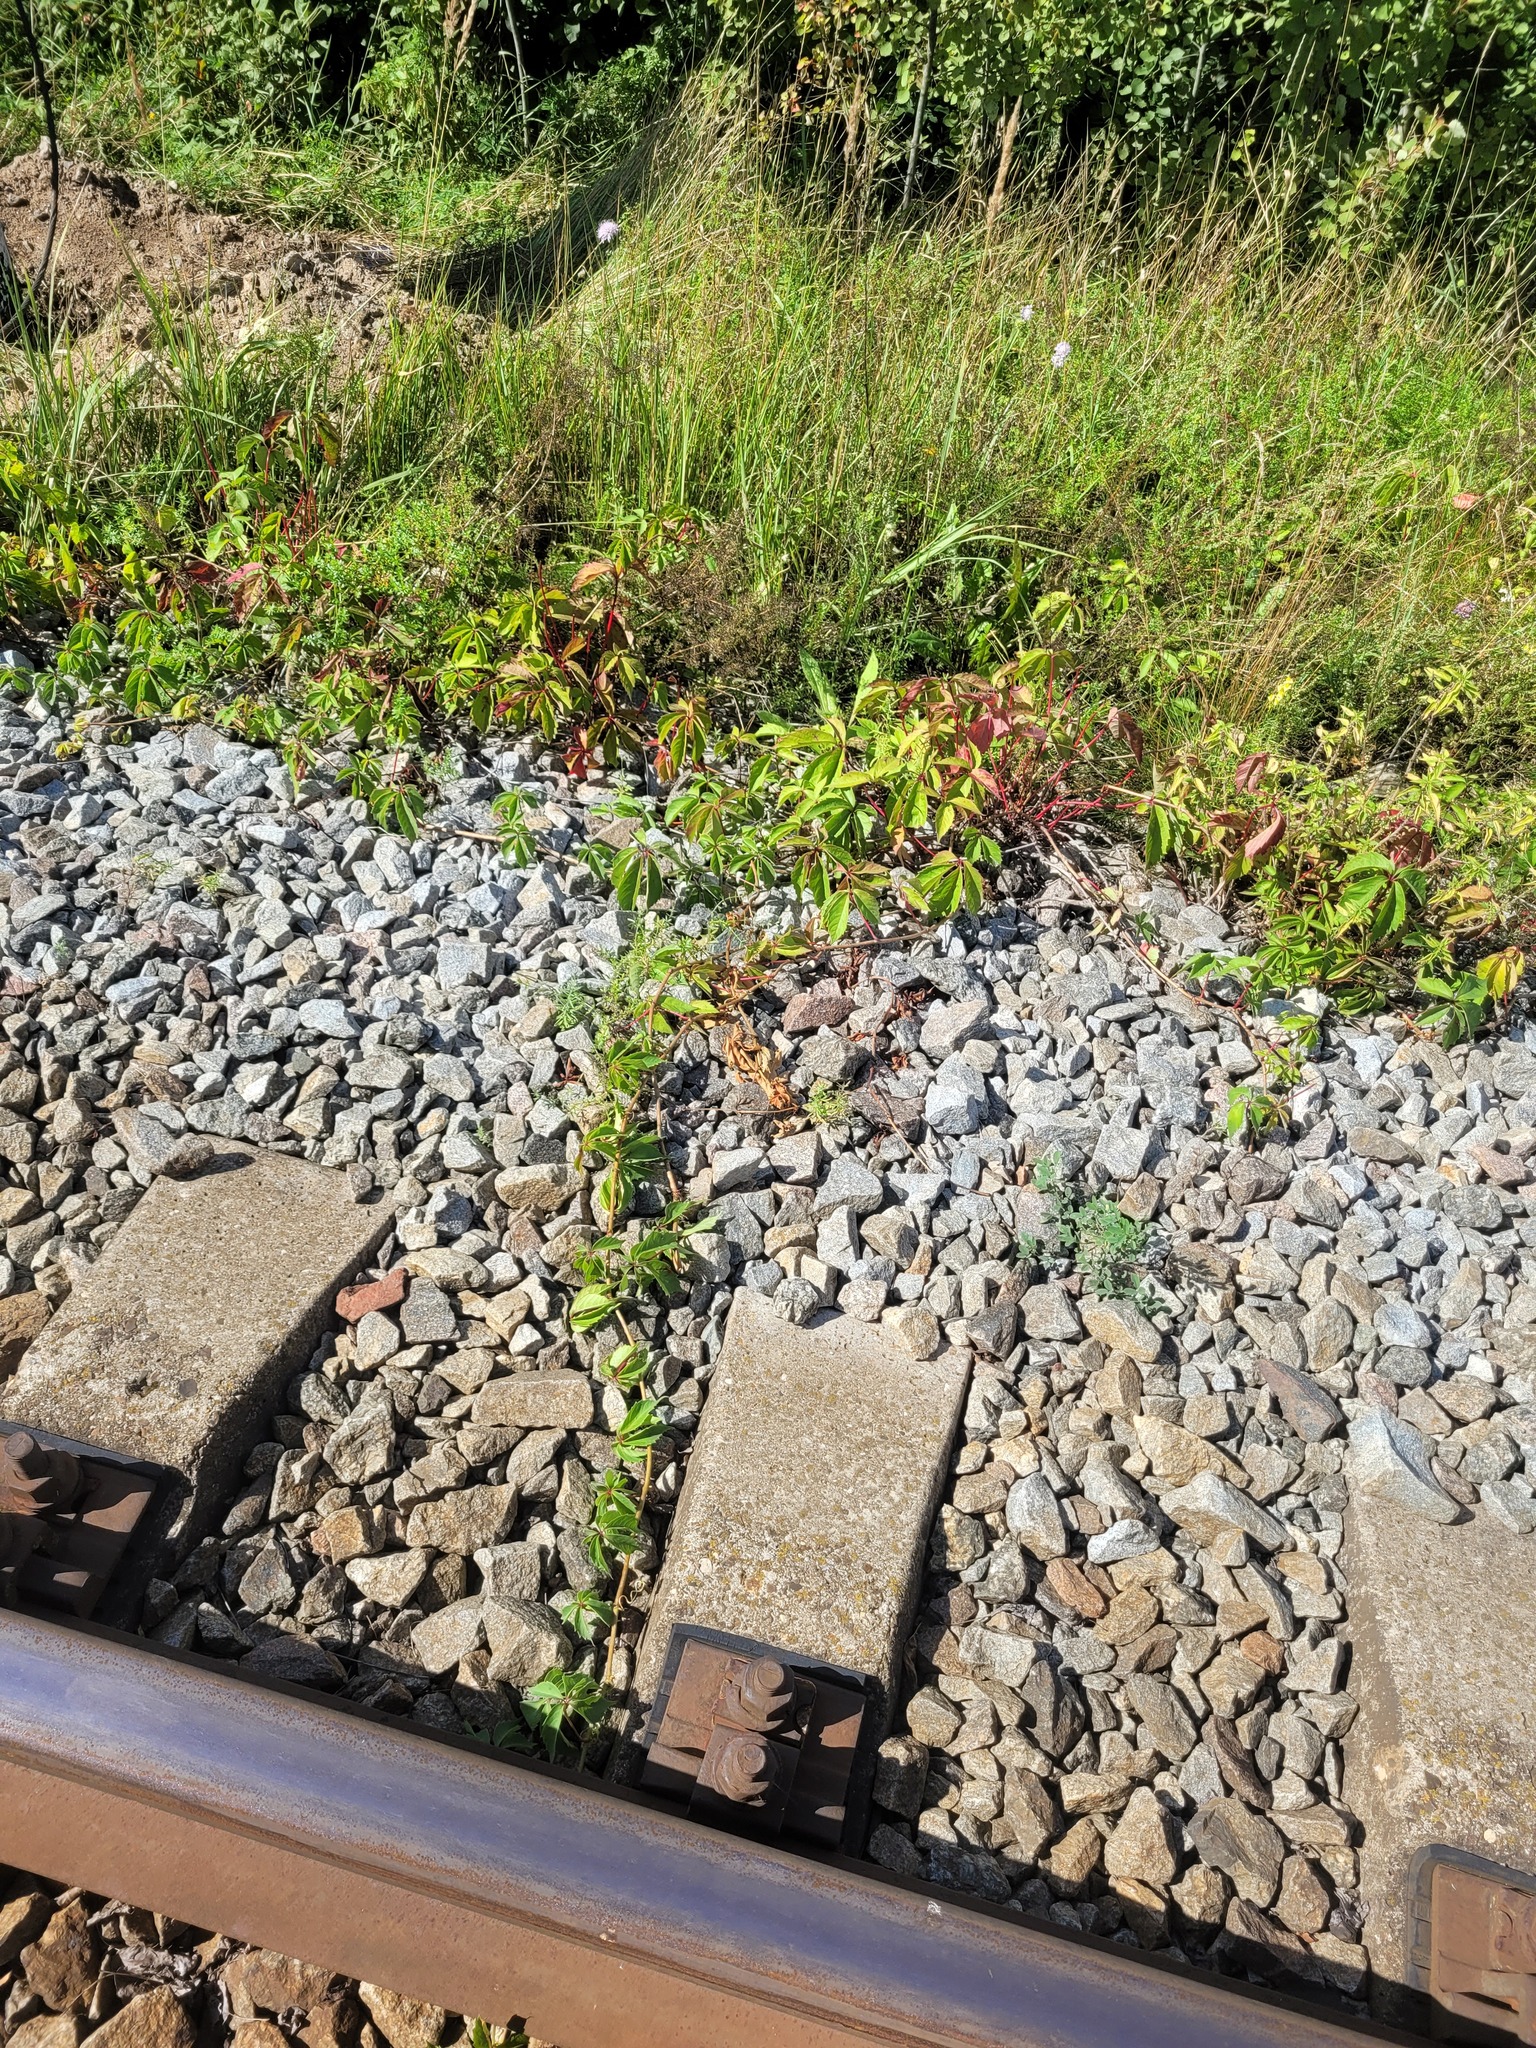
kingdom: Plantae
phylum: Tracheophyta
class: Magnoliopsida
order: Vitales
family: Vitaceae
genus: Parthenocissus
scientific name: Parthenocissus inserta
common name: False virginia-creeper
